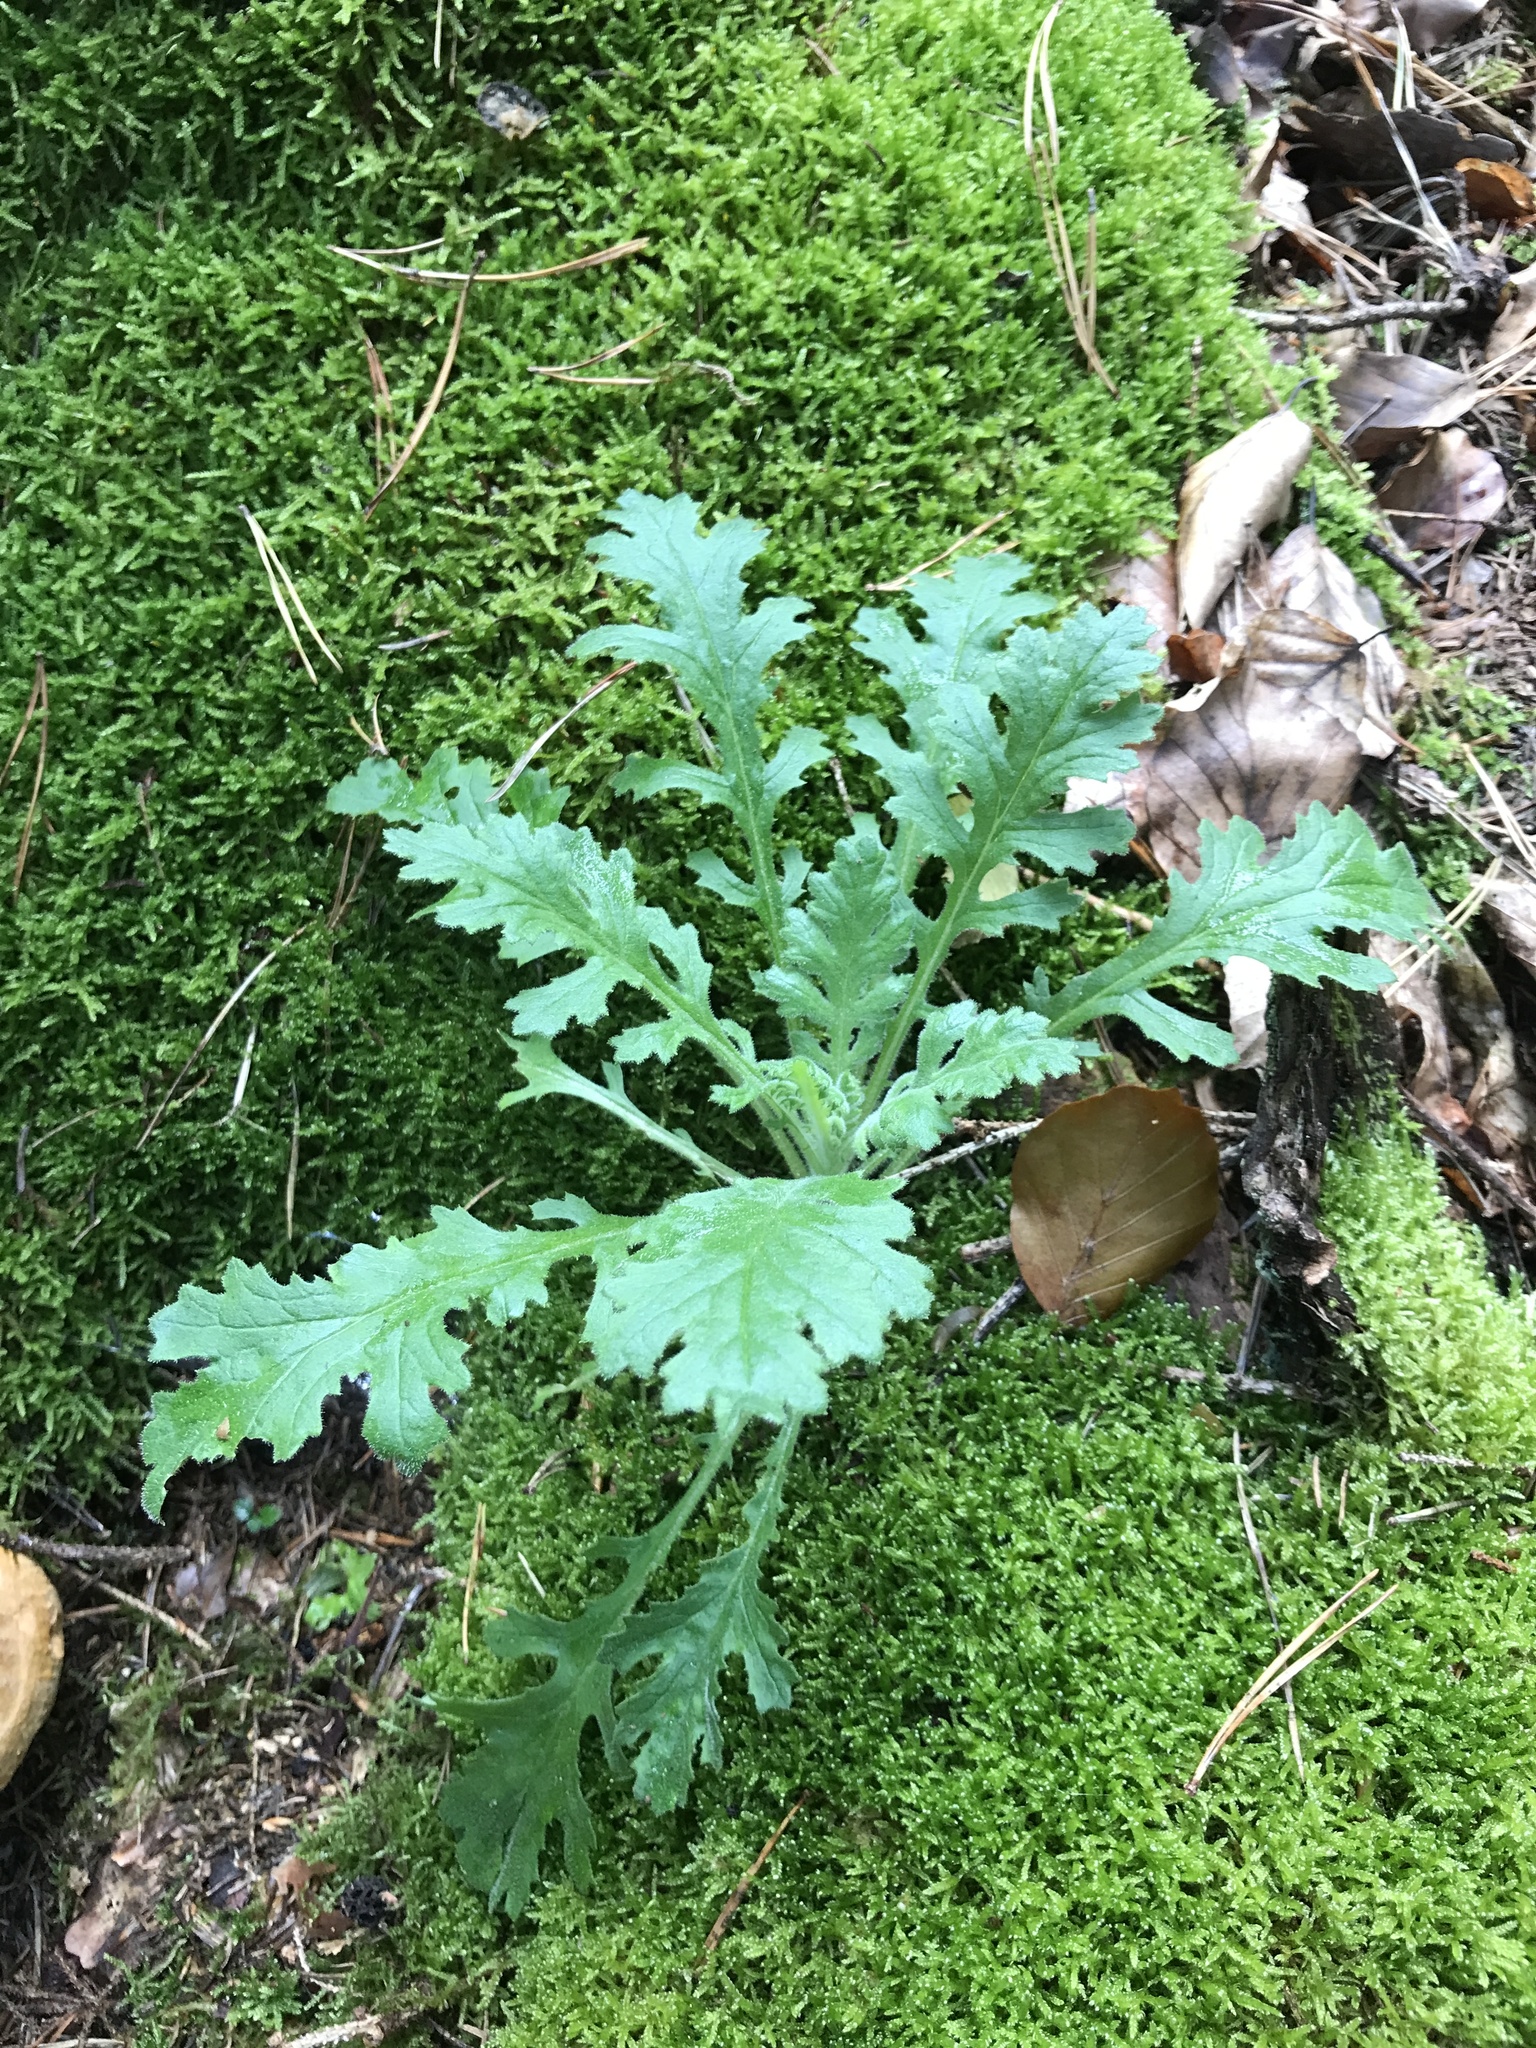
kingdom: Plantae
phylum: Tracheophyta
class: Magnoliopsida
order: Asterales
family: Asteraceae
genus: Senecio
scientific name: Senecio sylvaticus
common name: Woodland ragwort
